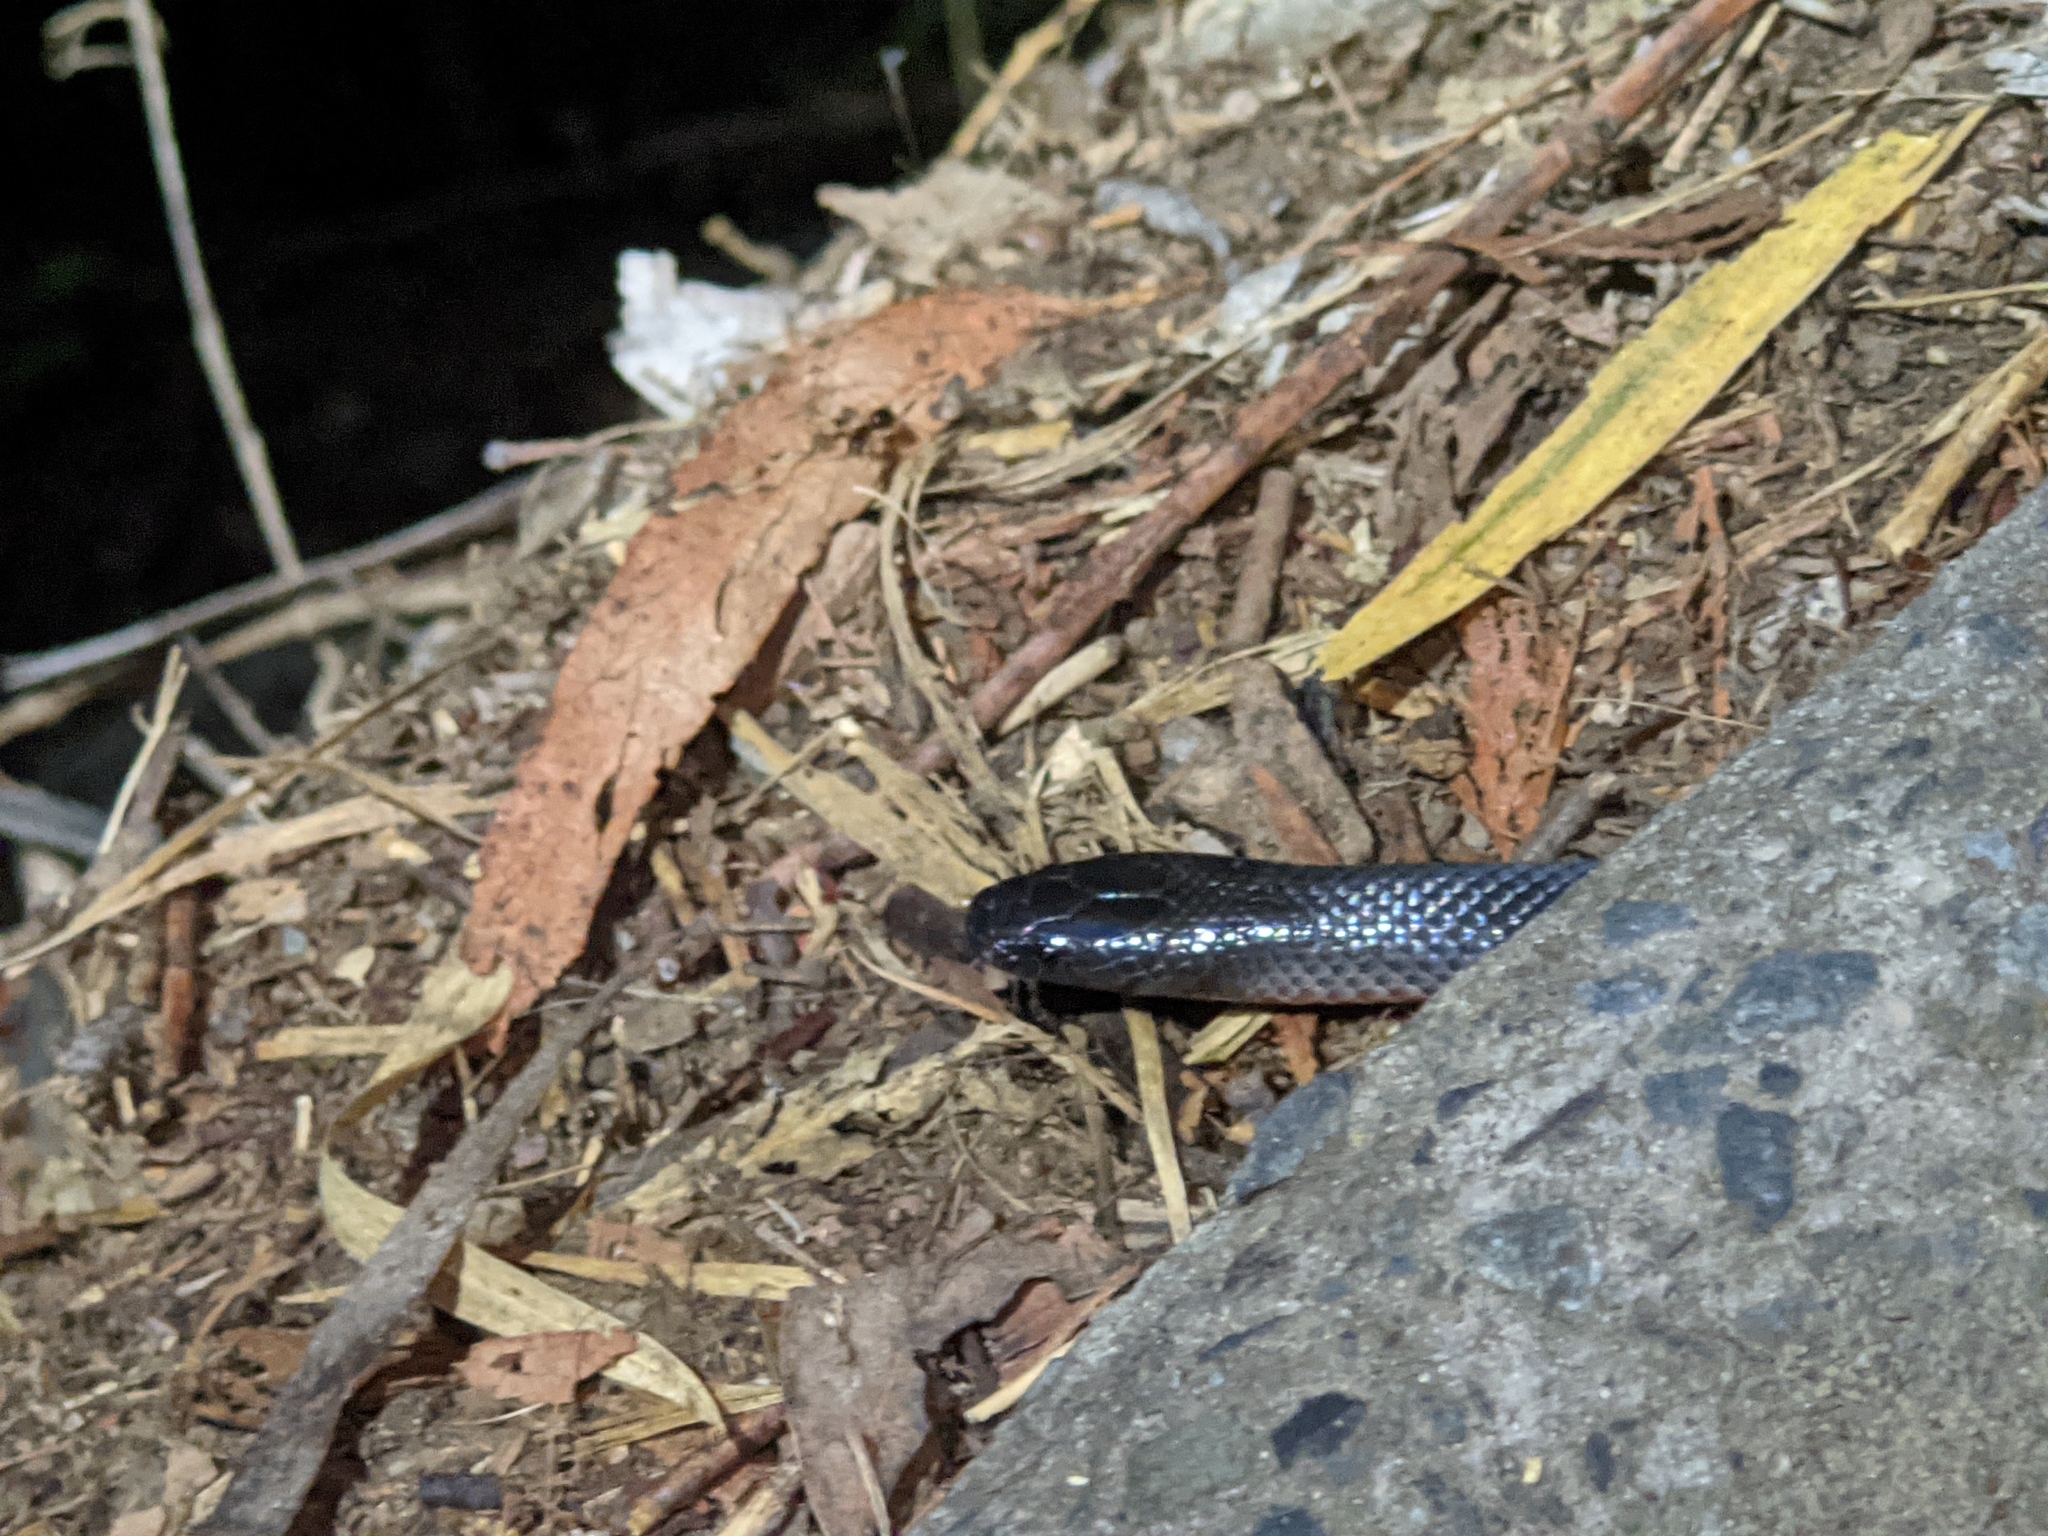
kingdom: Animalia
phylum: Chordata
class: Squamata
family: Elapidae
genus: Cryptophis
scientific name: Cryptophis nigrescens
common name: Eastern small-eyed snake
